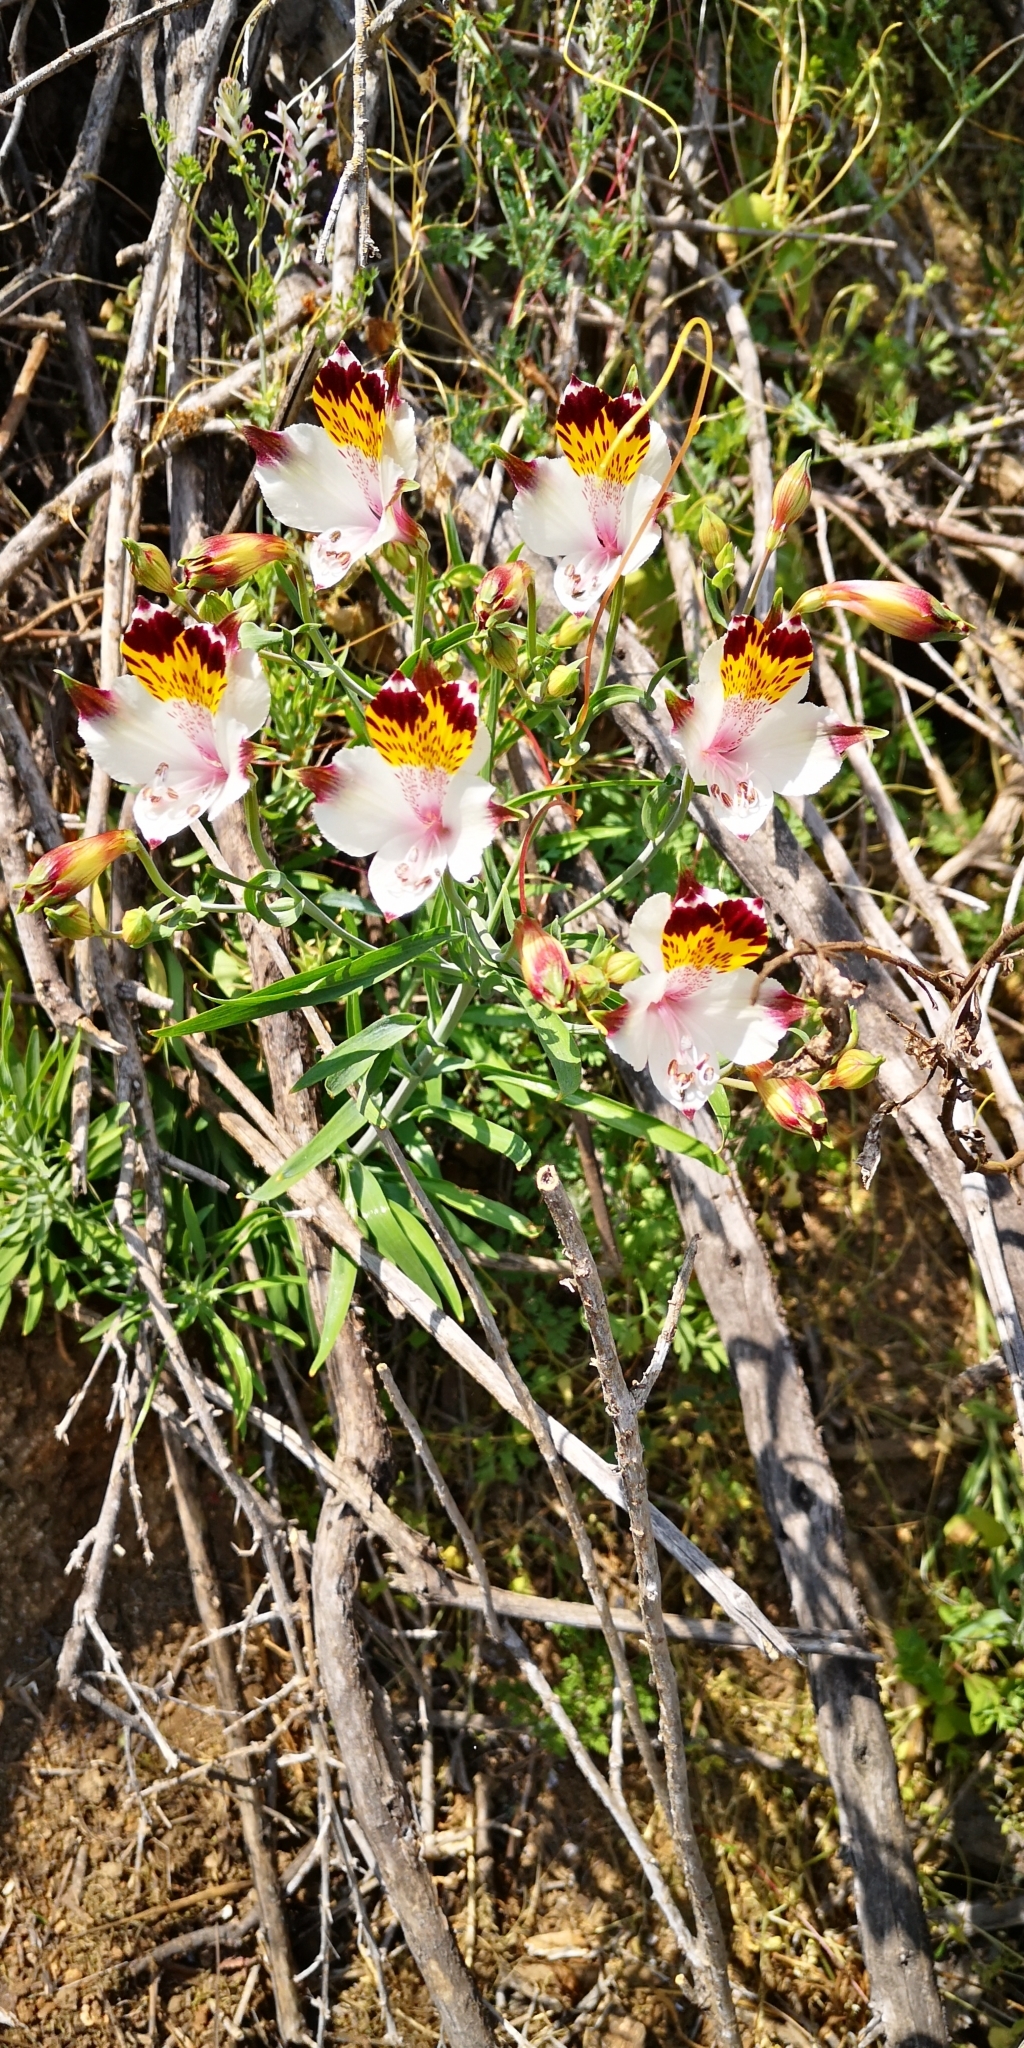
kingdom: Plantae
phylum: Tracheophyta
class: Liliopsida
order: Liliales
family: Alstroemeriaceae
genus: Alstroemeria
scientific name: Alstroemeria pulchra
